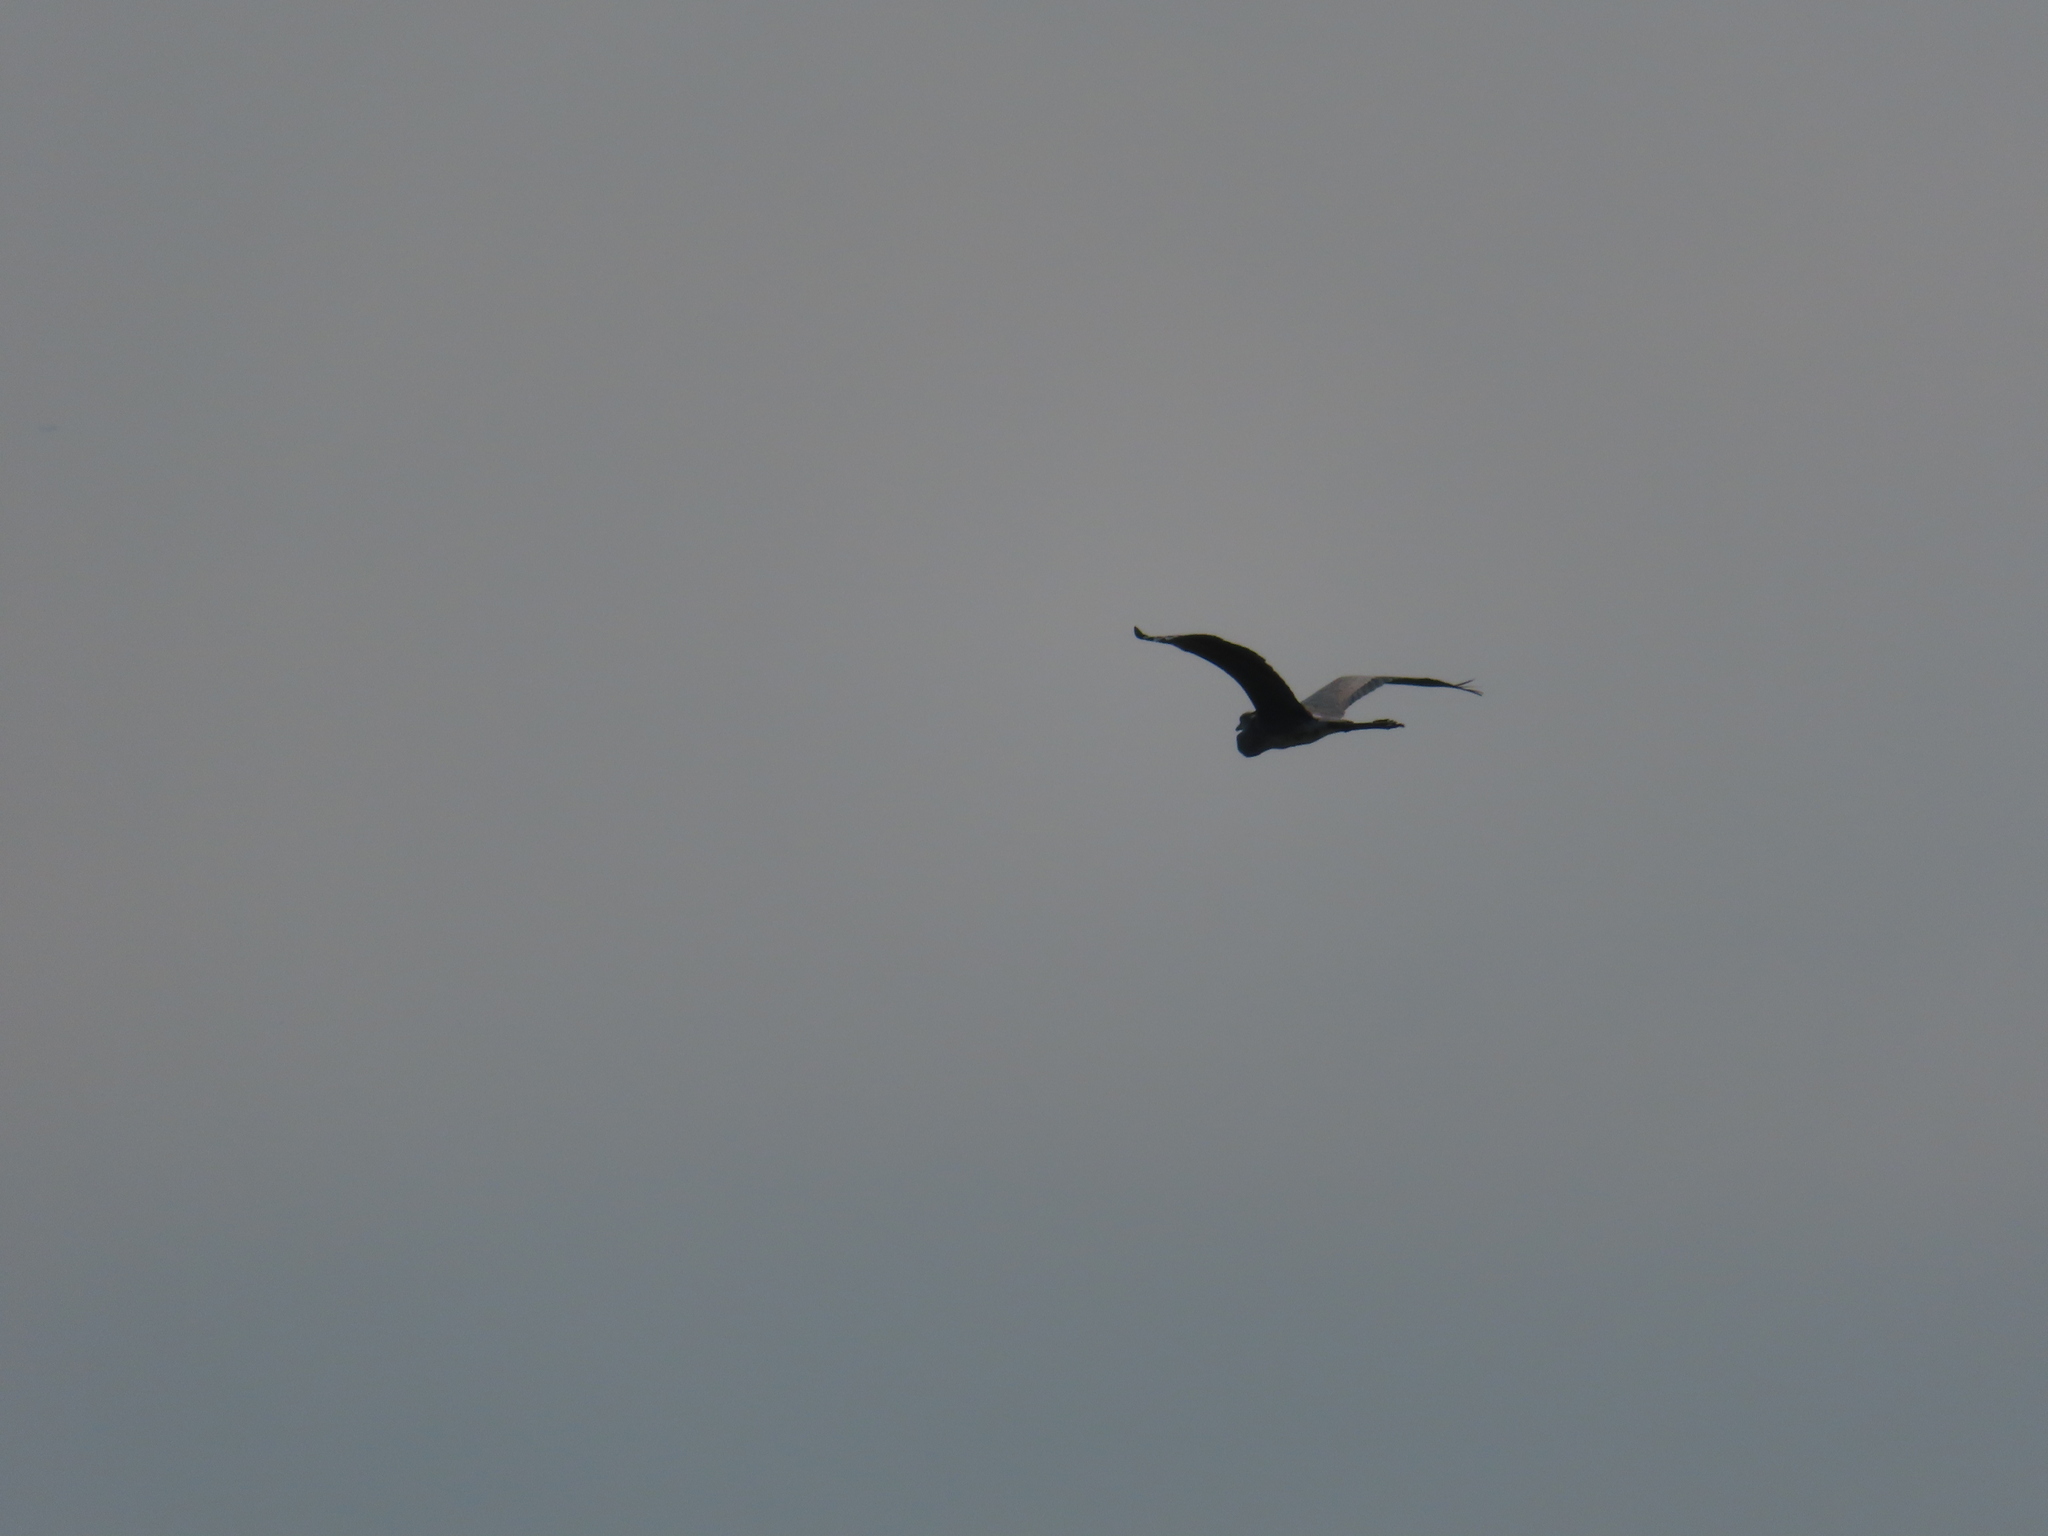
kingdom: Animalia
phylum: Chordata
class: Aves
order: Pelecaniformes
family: Ardeidae
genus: Ardea
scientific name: Ardea herodias
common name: Great blue heron
